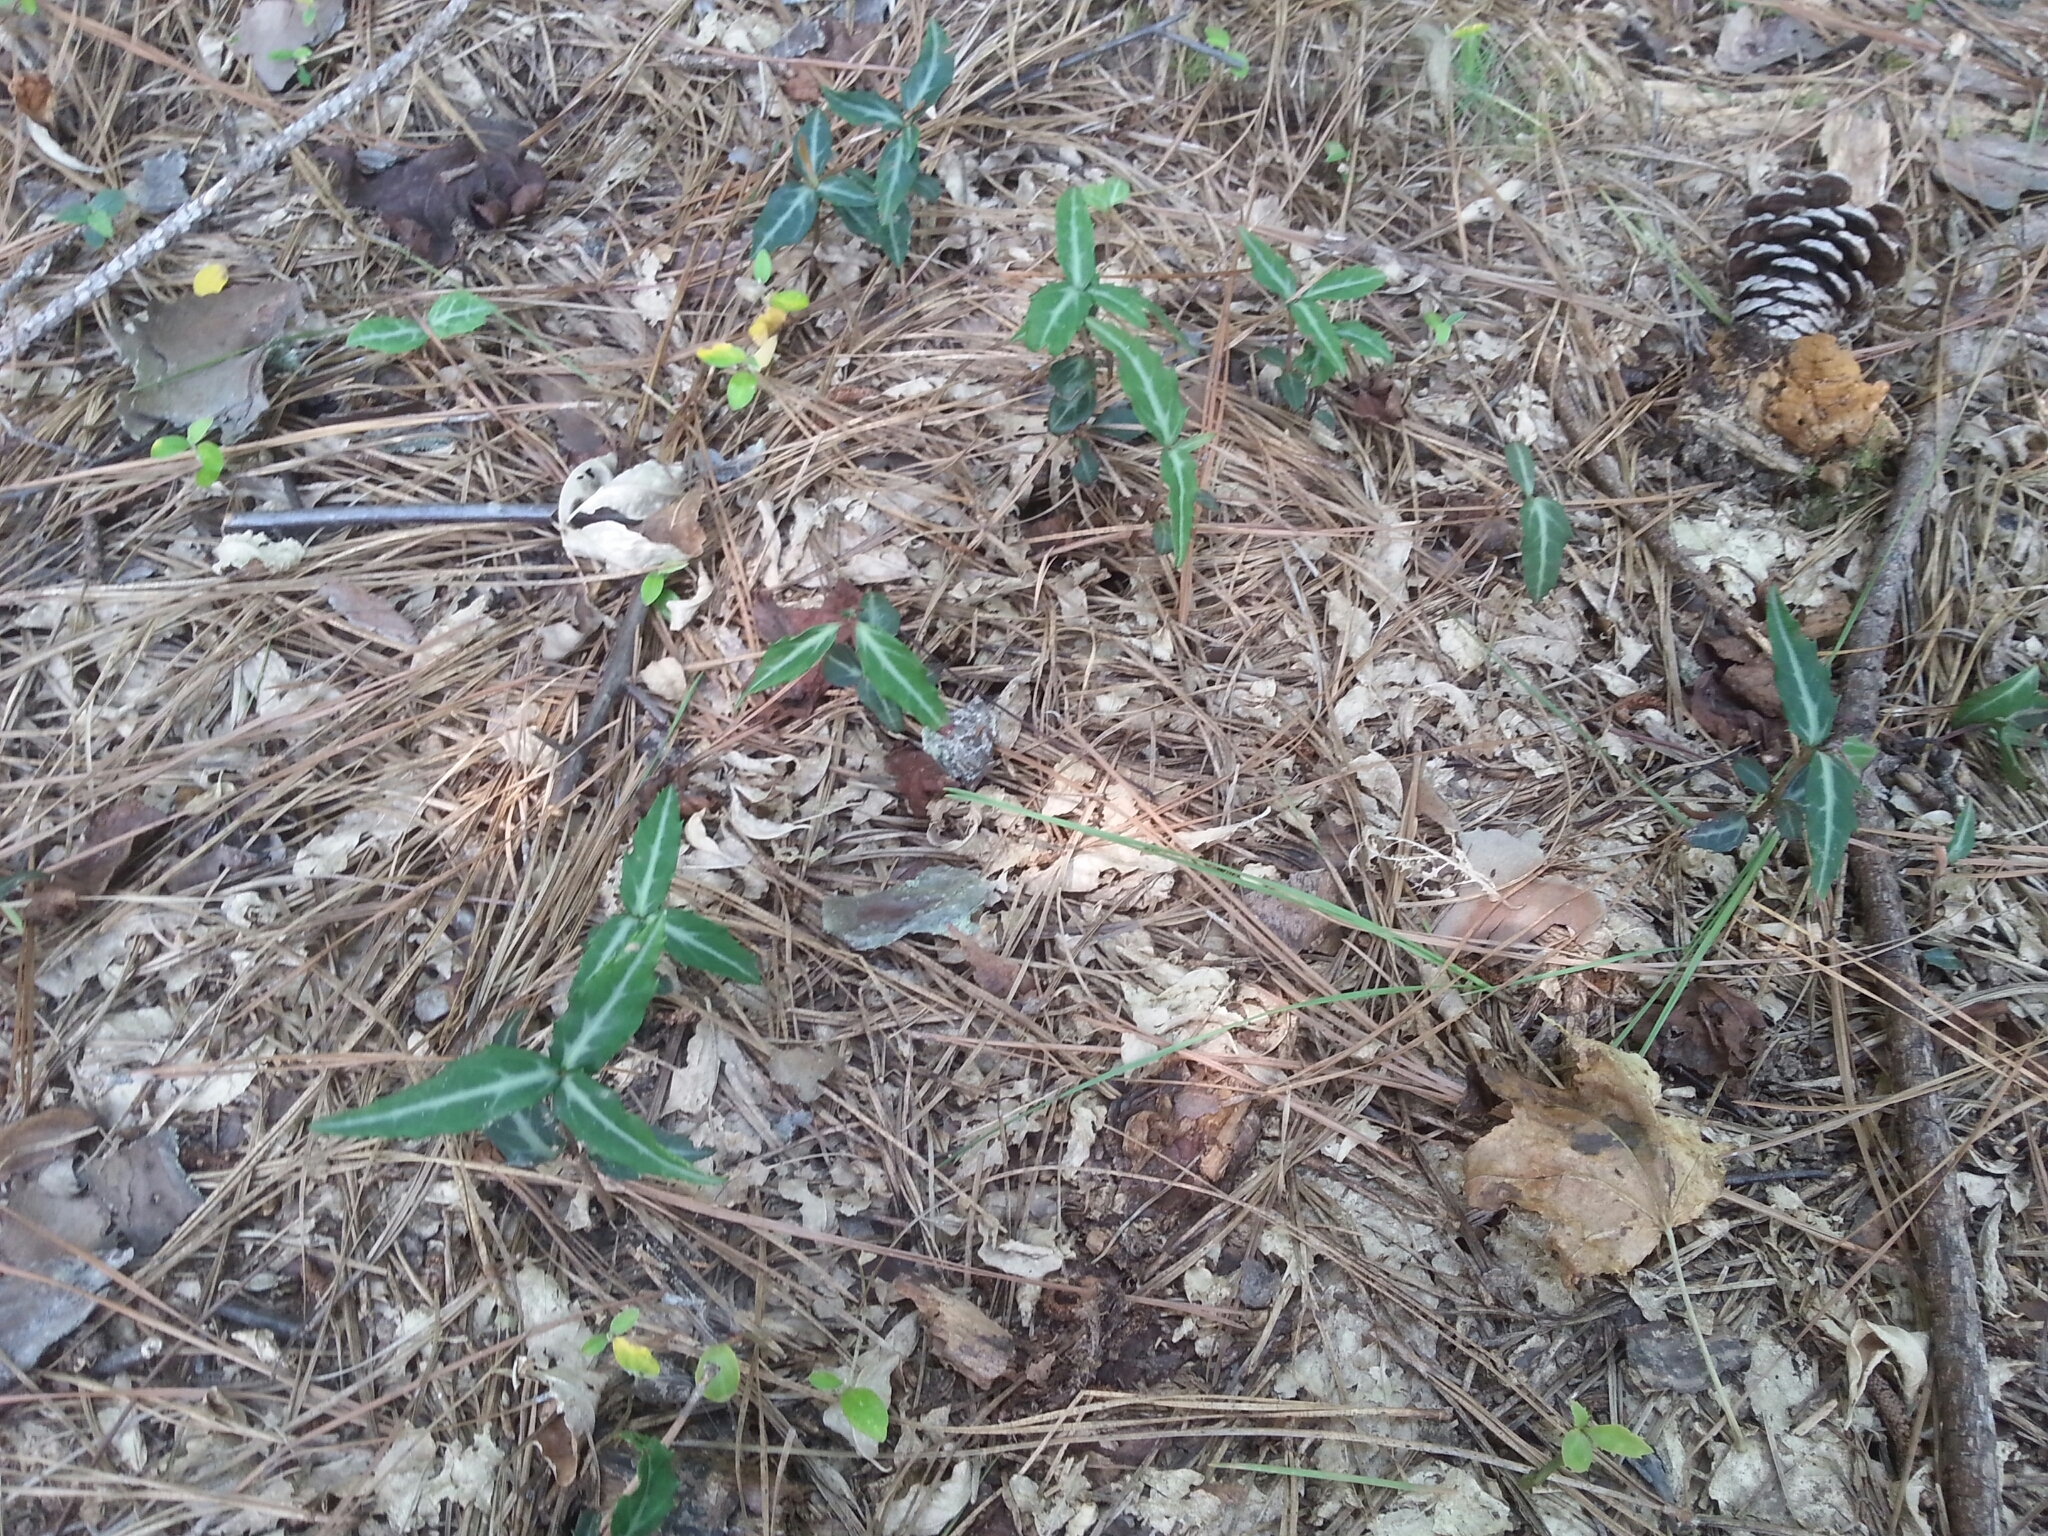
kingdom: Plantae
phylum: Tracheophyta
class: Magnoliopsida
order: Ericales
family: Ericaceae
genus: Chimaphila
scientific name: Chimaphila maculata
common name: Spotted pipsissewa
